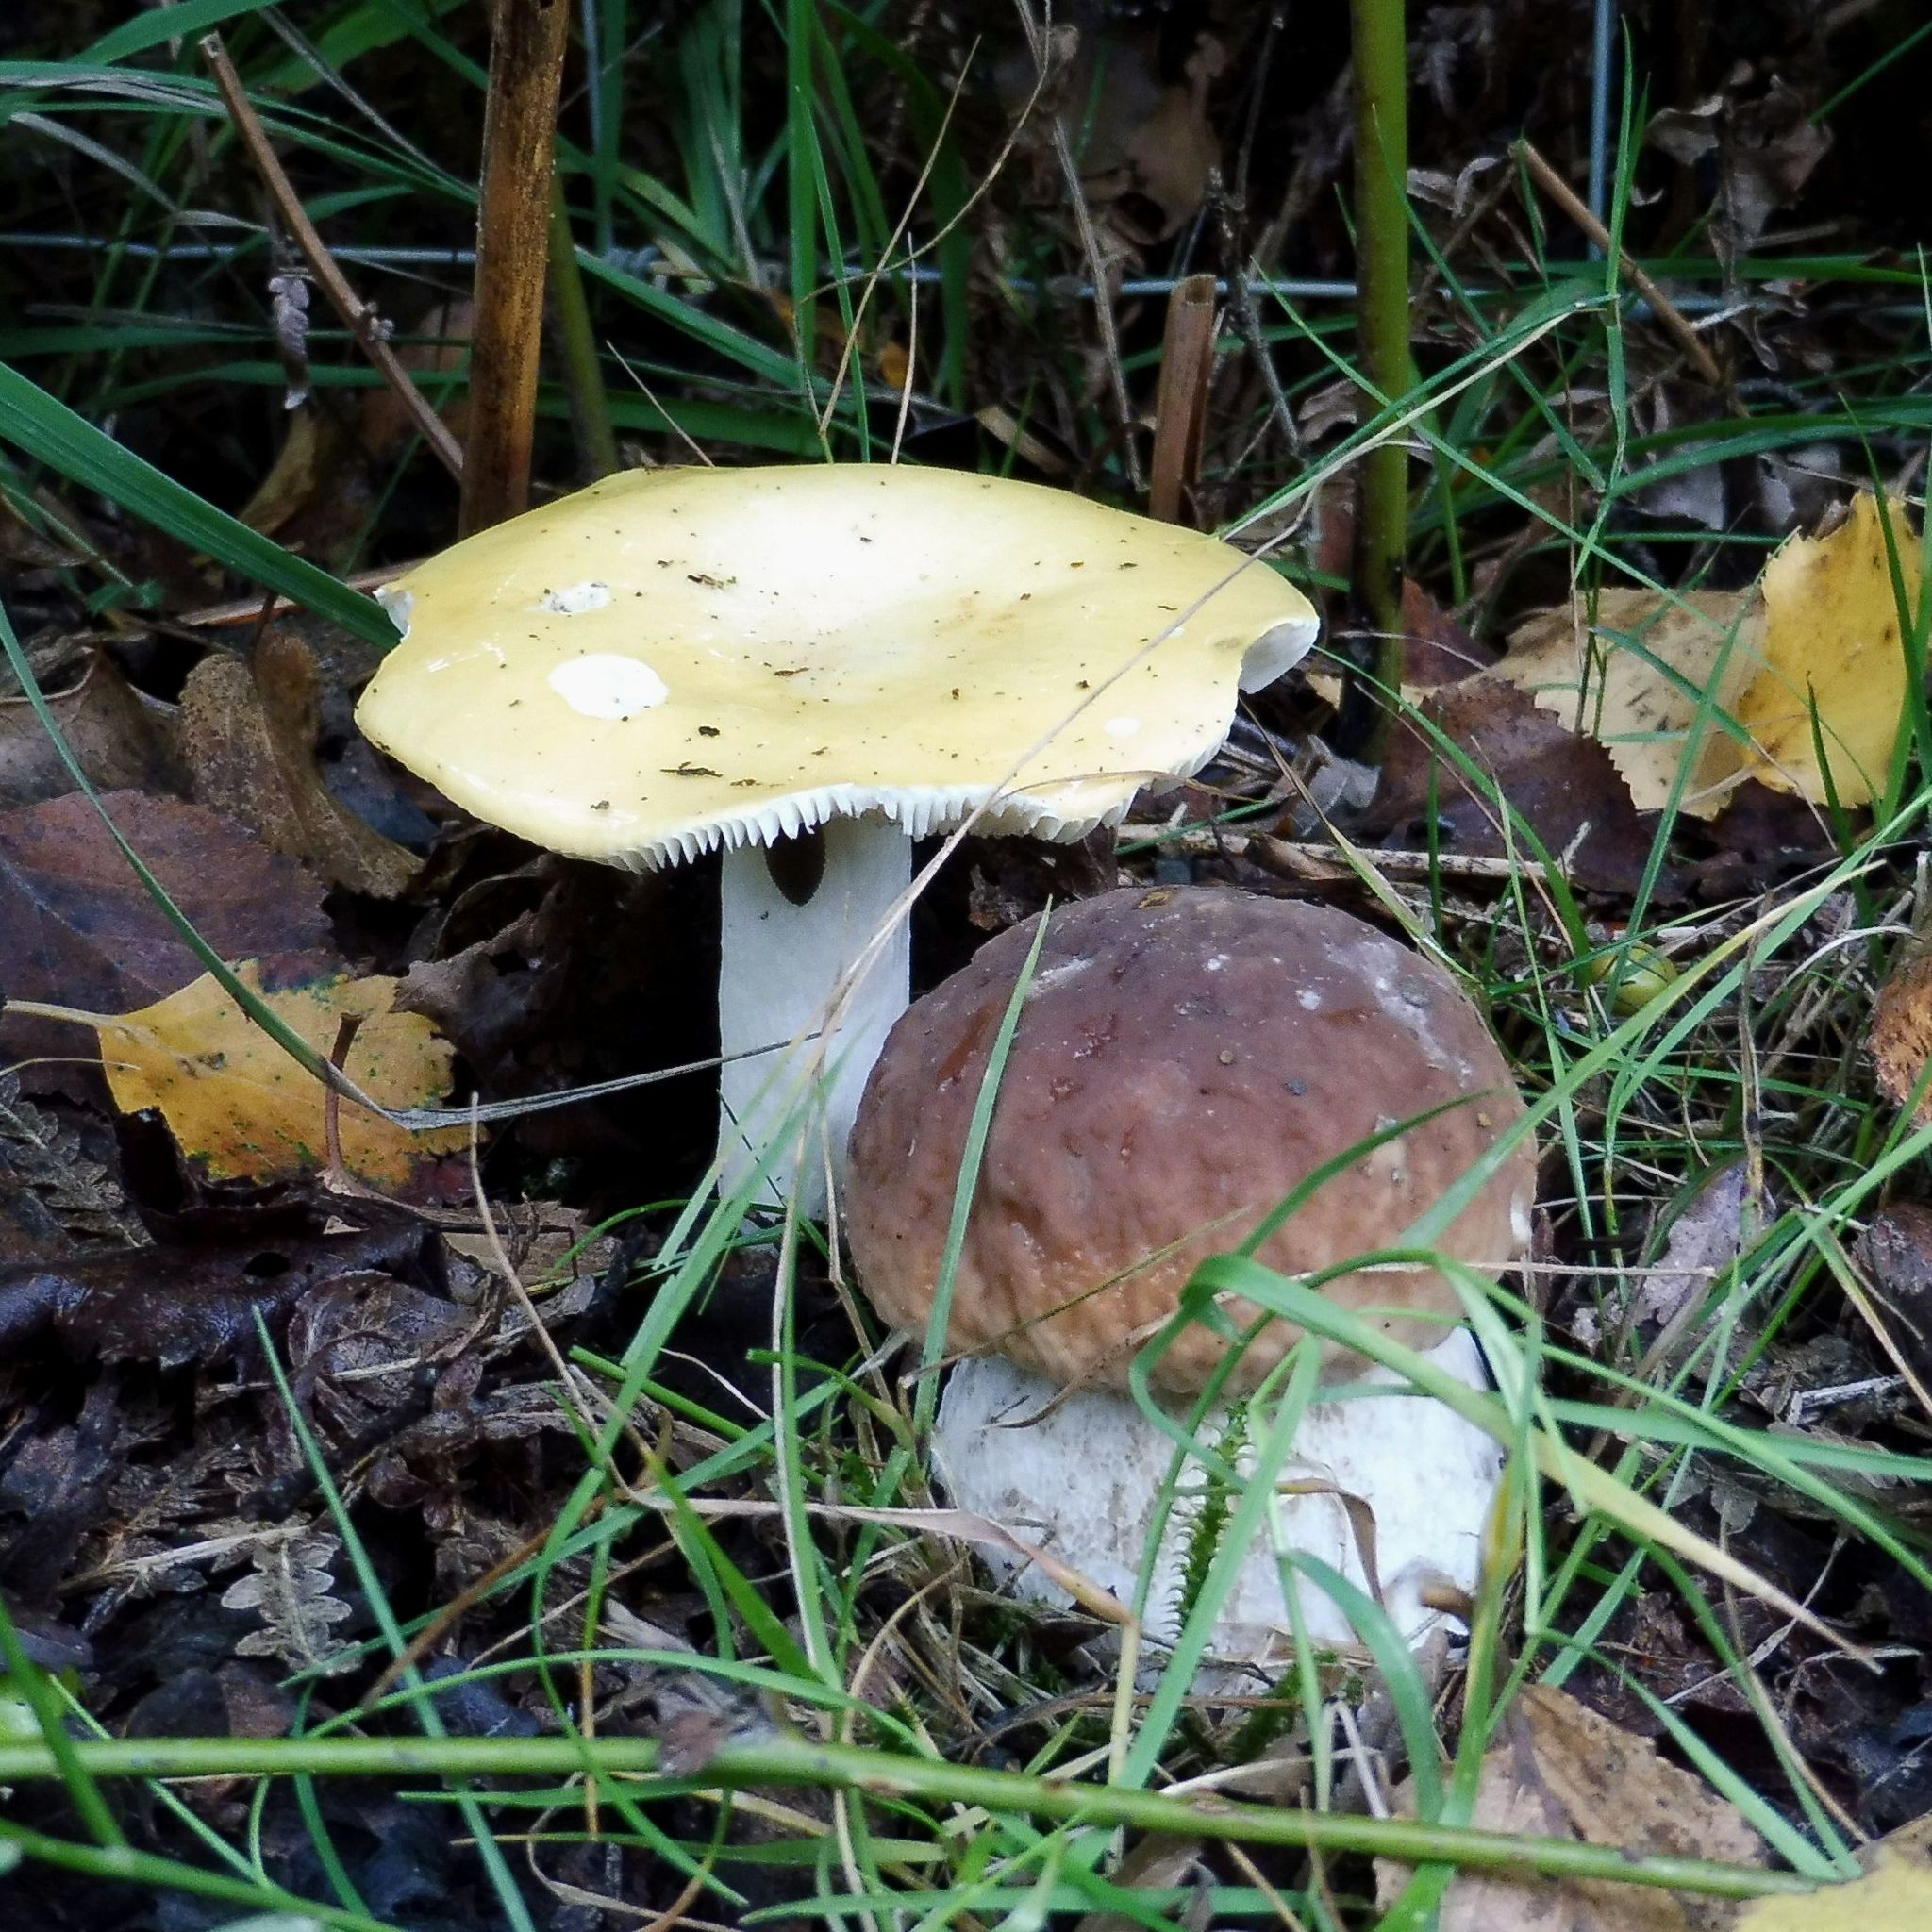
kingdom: Fungi
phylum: Basidiomycota
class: Agaricomycetes
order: Russulales
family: Russulaceae
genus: Russula
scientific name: Russula ochroleuca
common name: Common yellow russula
